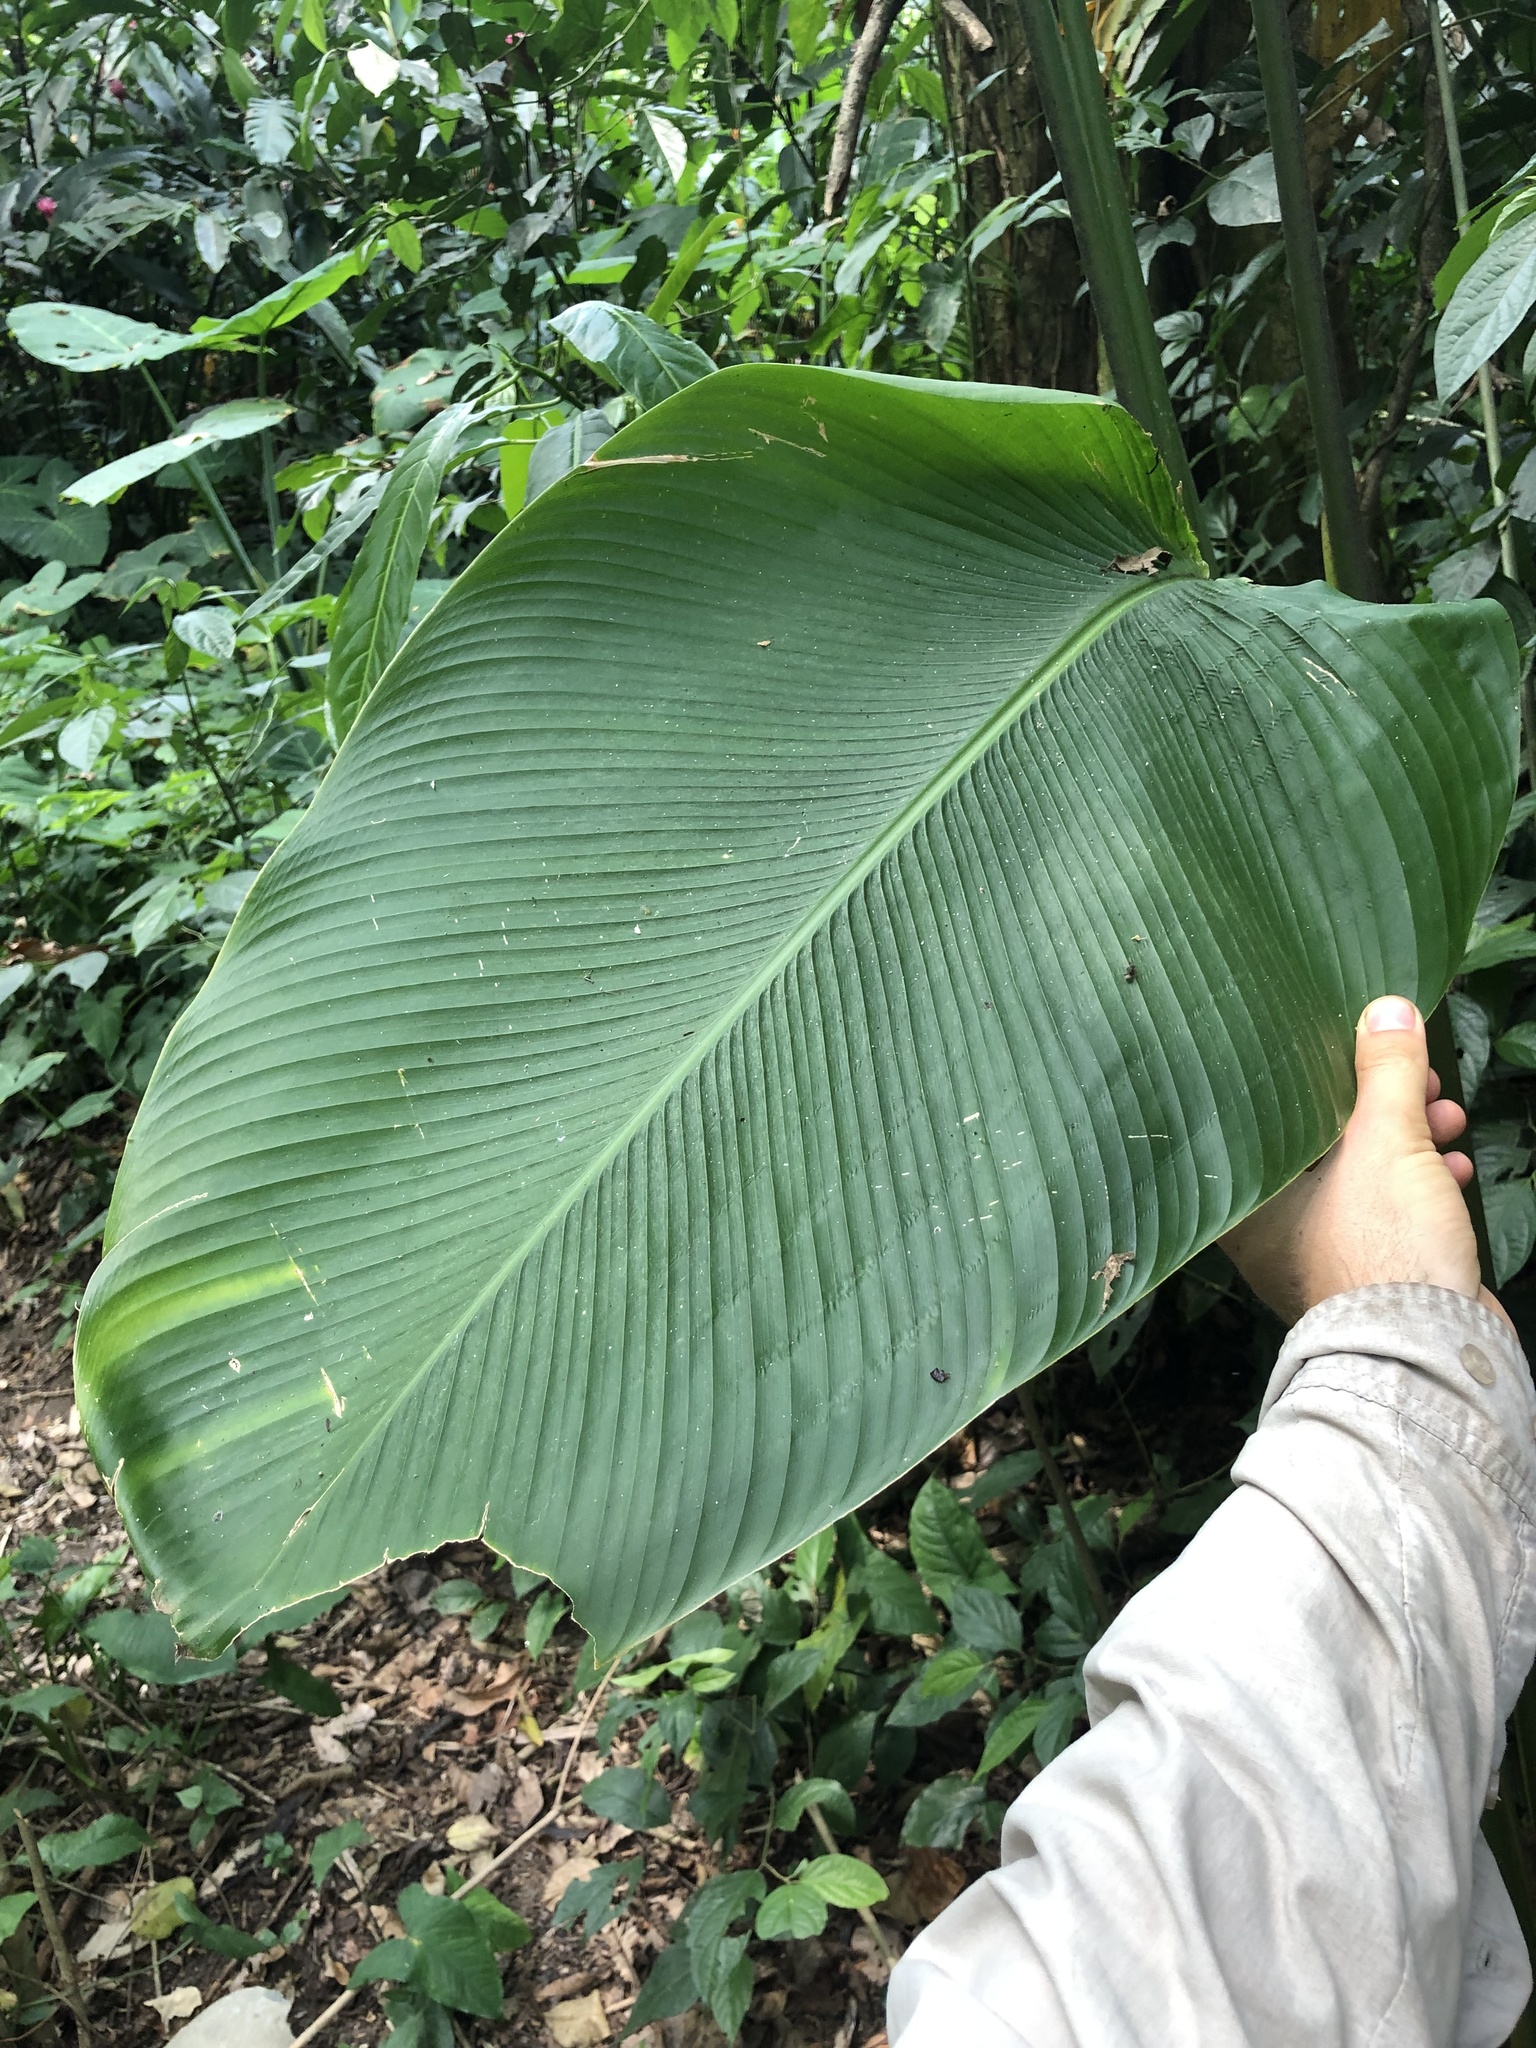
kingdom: Plantae
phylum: Tracheophyta
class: Liliopsida
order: Zingiberales
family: Marantaceae
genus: Calathea
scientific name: Calathea lutea
